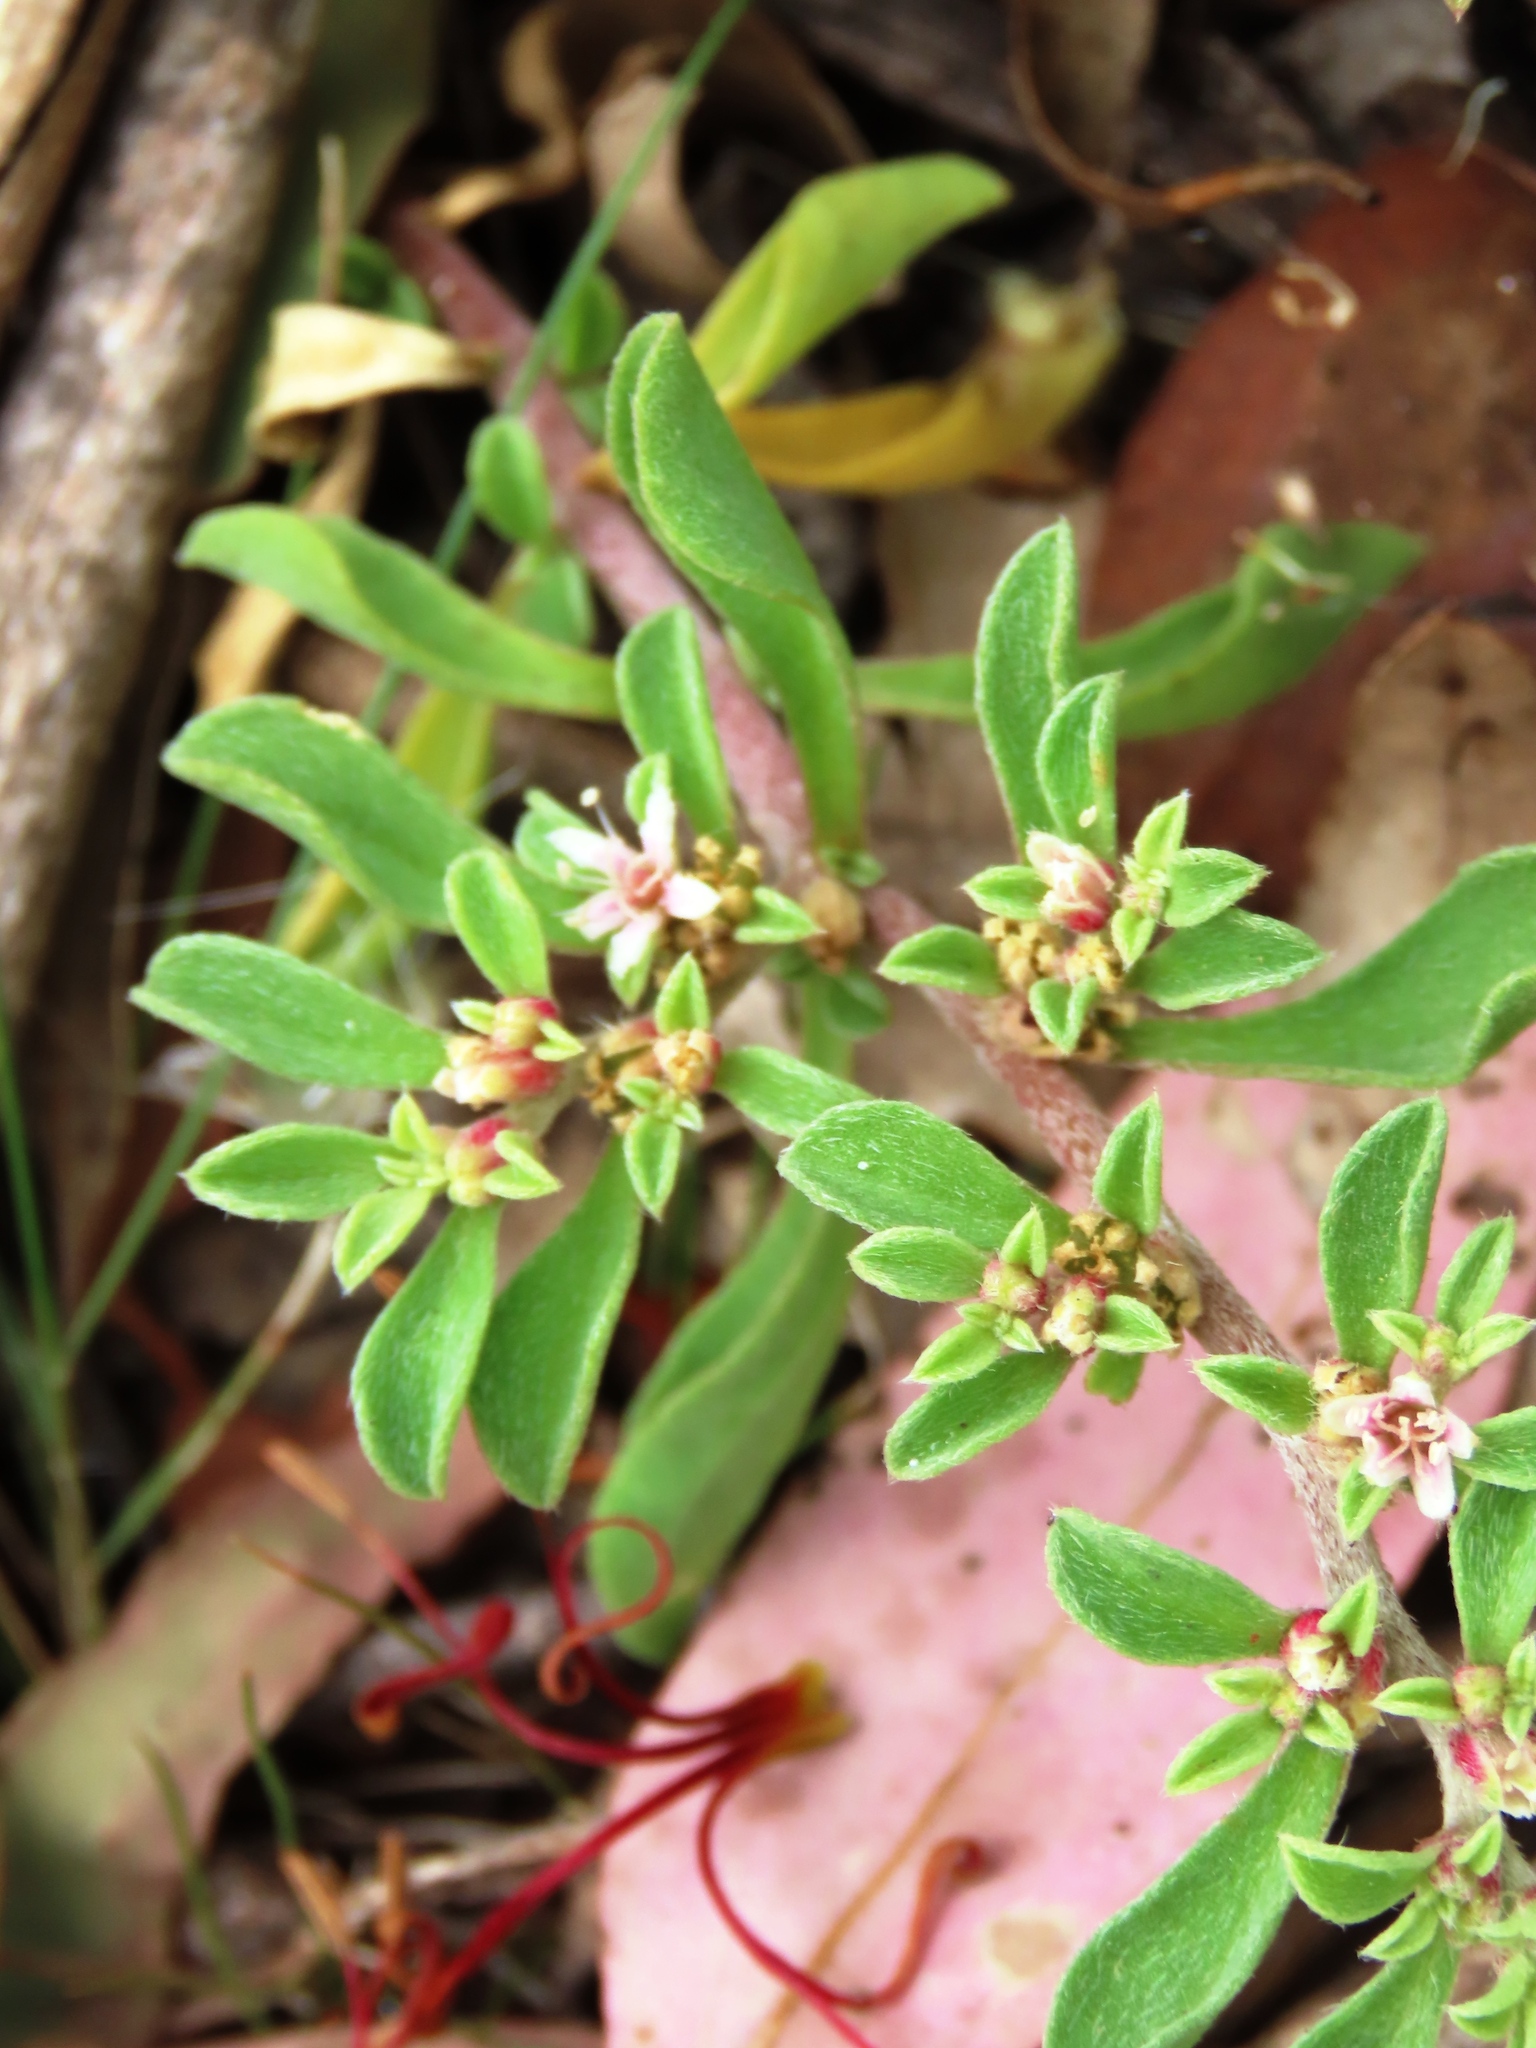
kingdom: Plantae
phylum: Tracheophyta
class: Magnoliopsida
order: Caryophyllales
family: Aizoaceae
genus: Aizoon
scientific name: Aizoon pubescens
